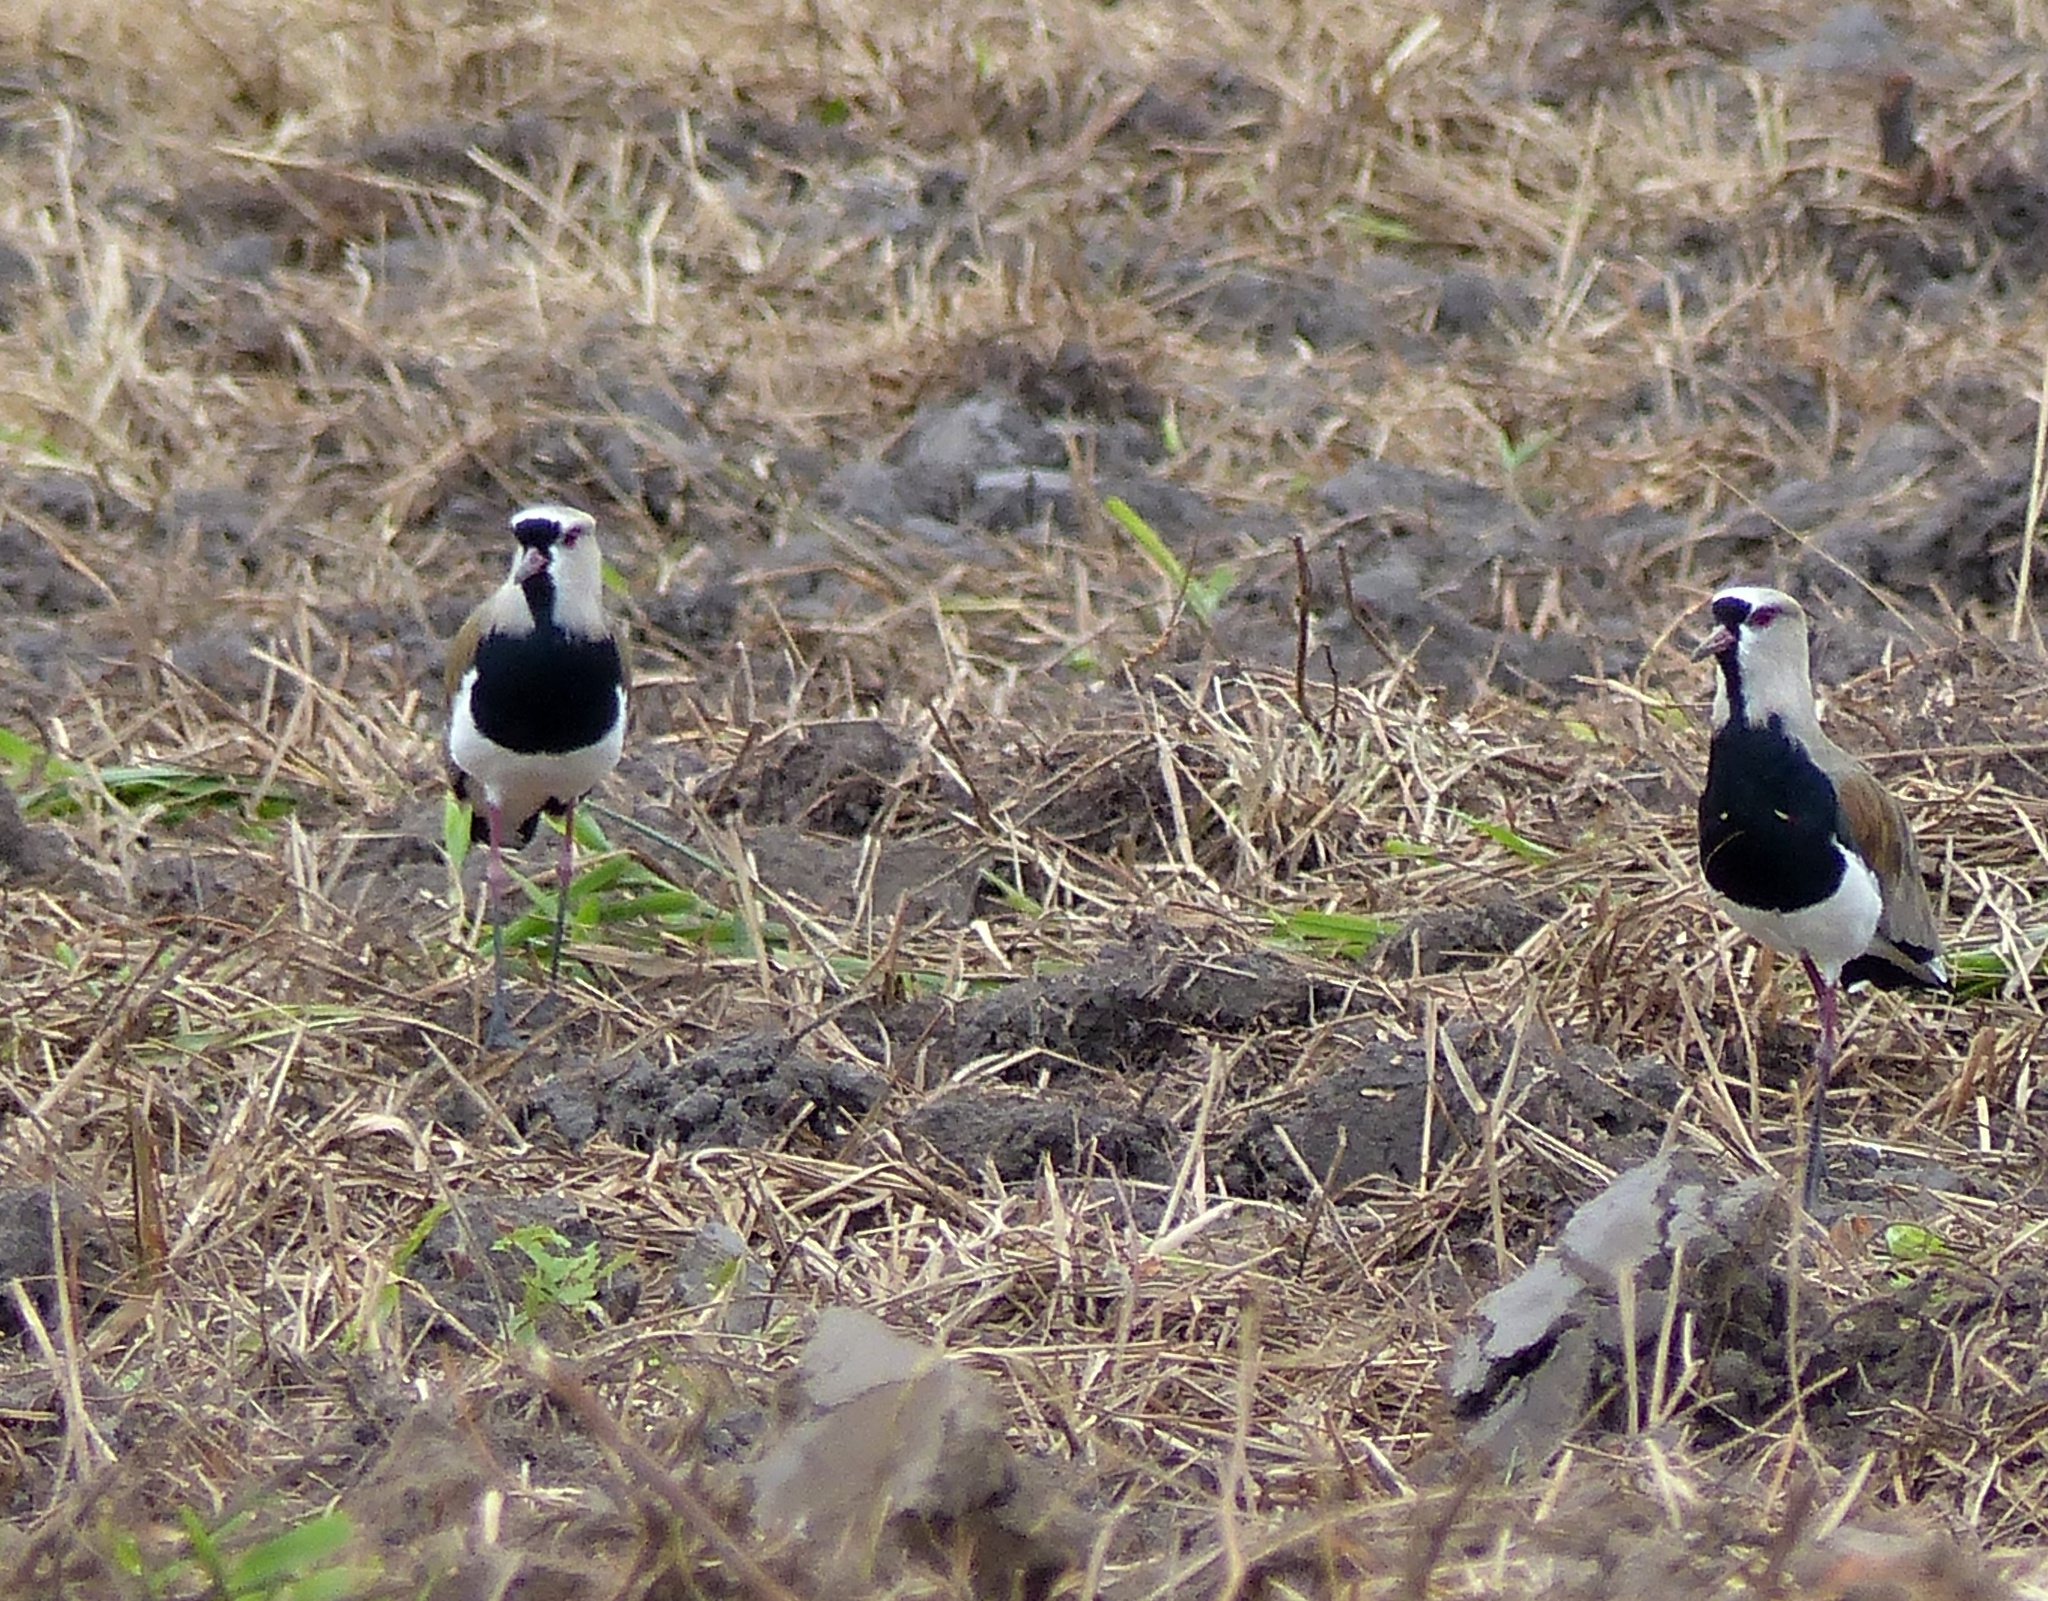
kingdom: Animalia
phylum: Chordata
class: Aves
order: Charadriiformes
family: Charadriidae
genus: Vanellus
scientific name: Vanellus chilensis
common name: Southern lapwing
